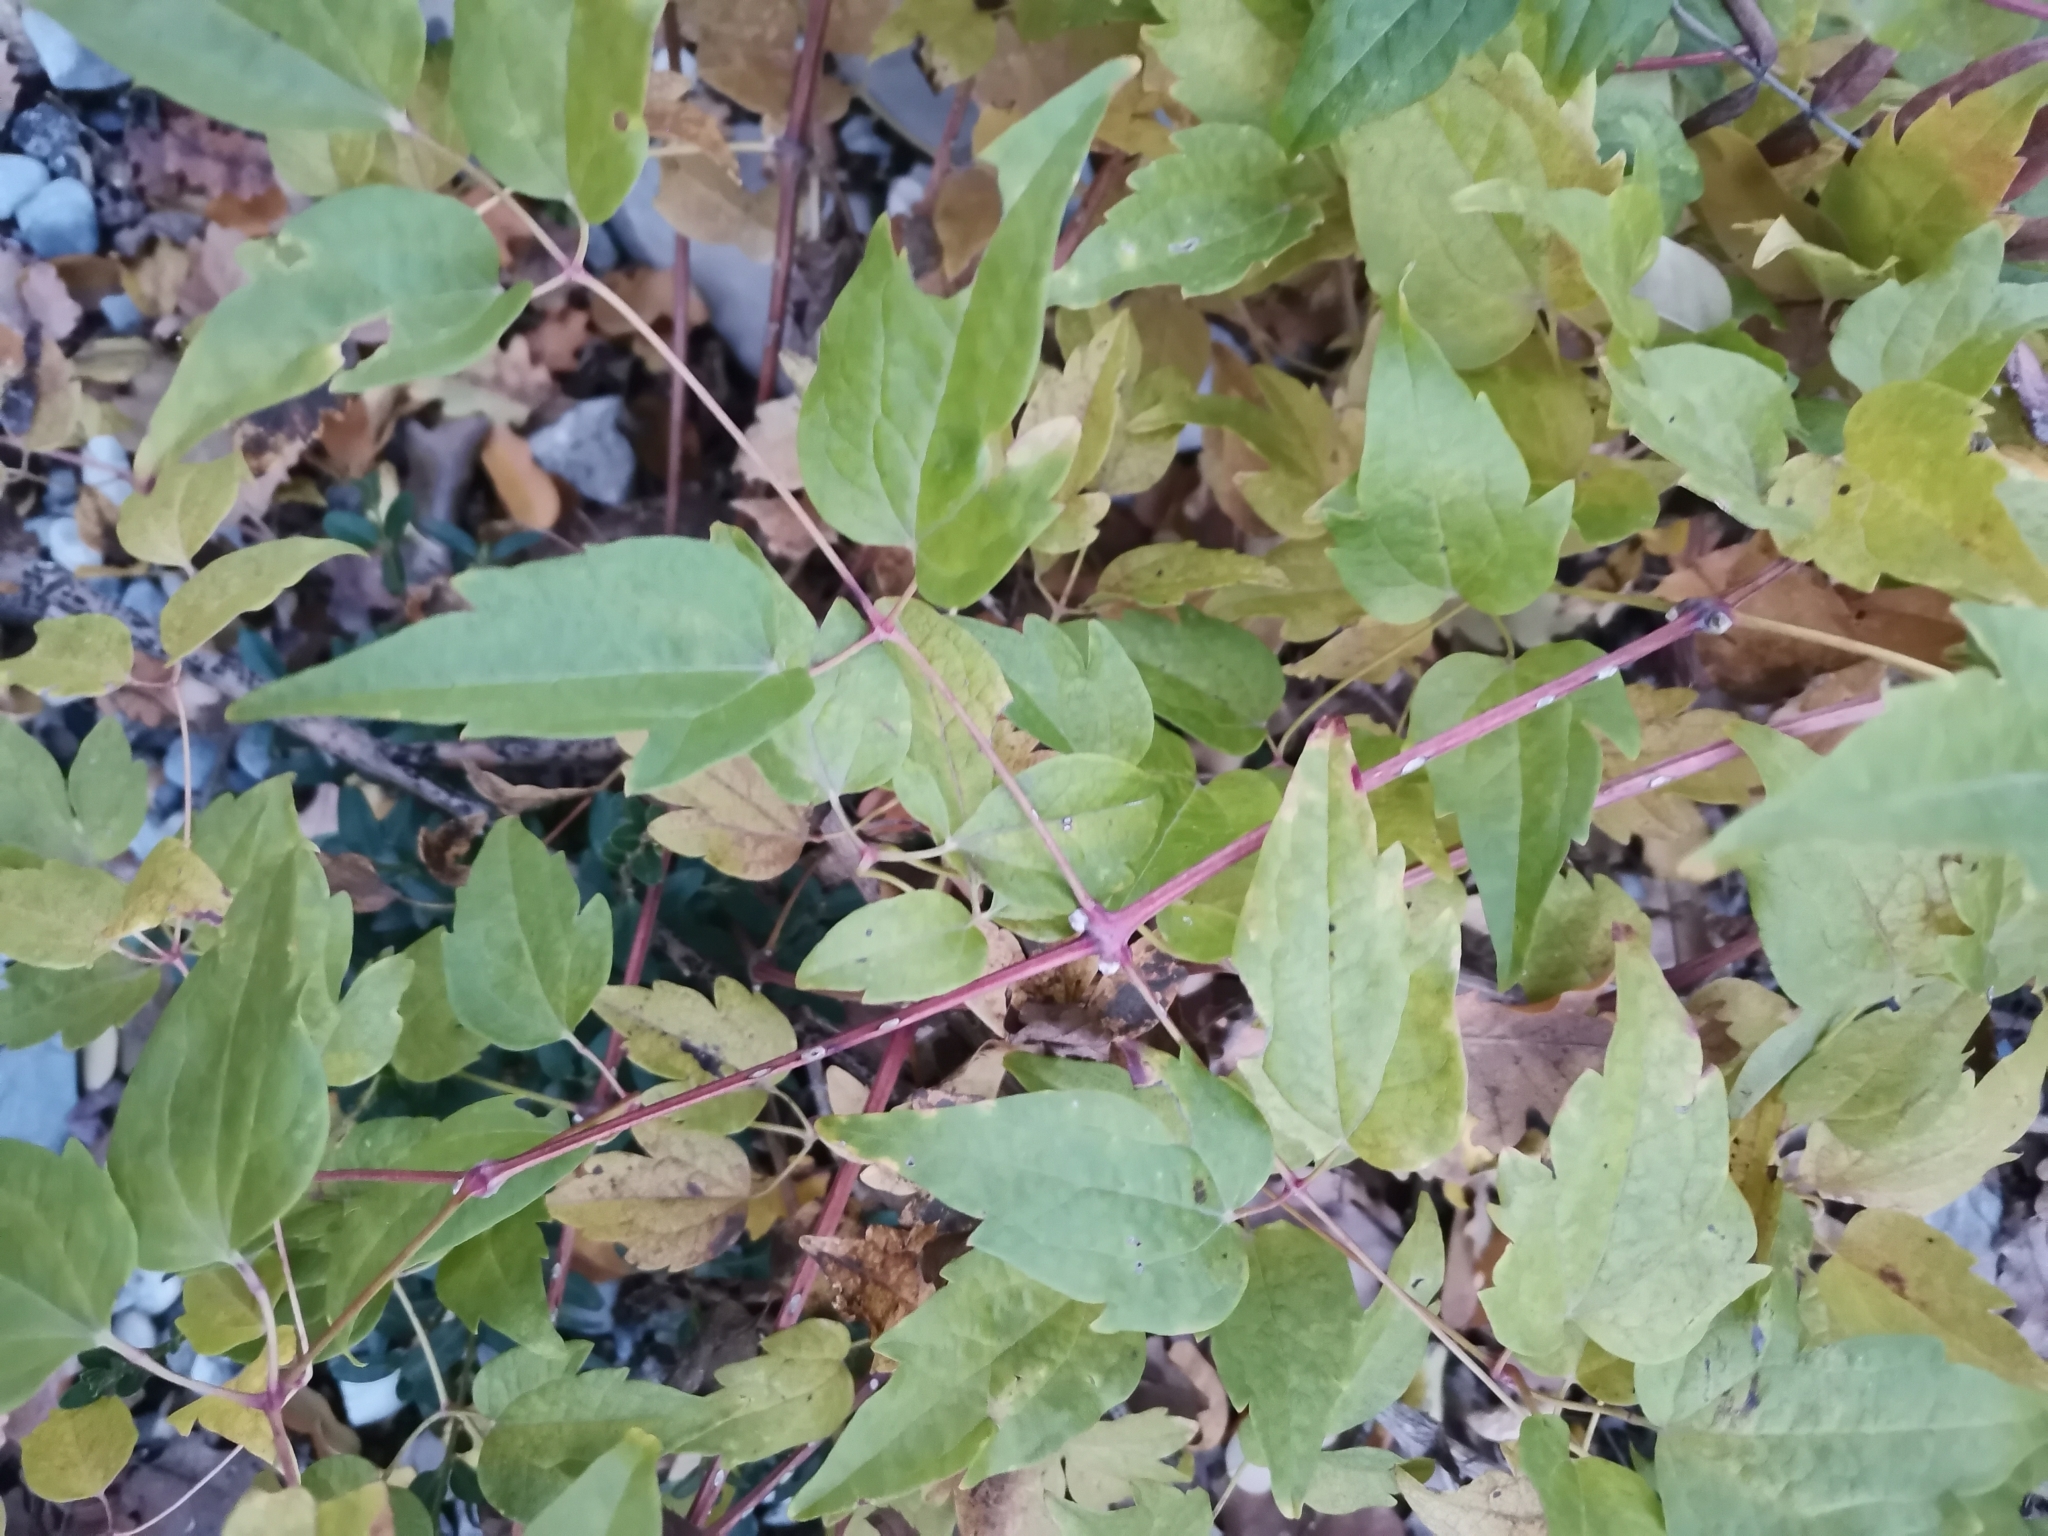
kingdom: Plantae
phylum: Tracheophyta
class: Magnoliopsida
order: Ranunculales
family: Ranunculaceae
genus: Clematis
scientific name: Clematis vitalba
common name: Evergreen clematis
